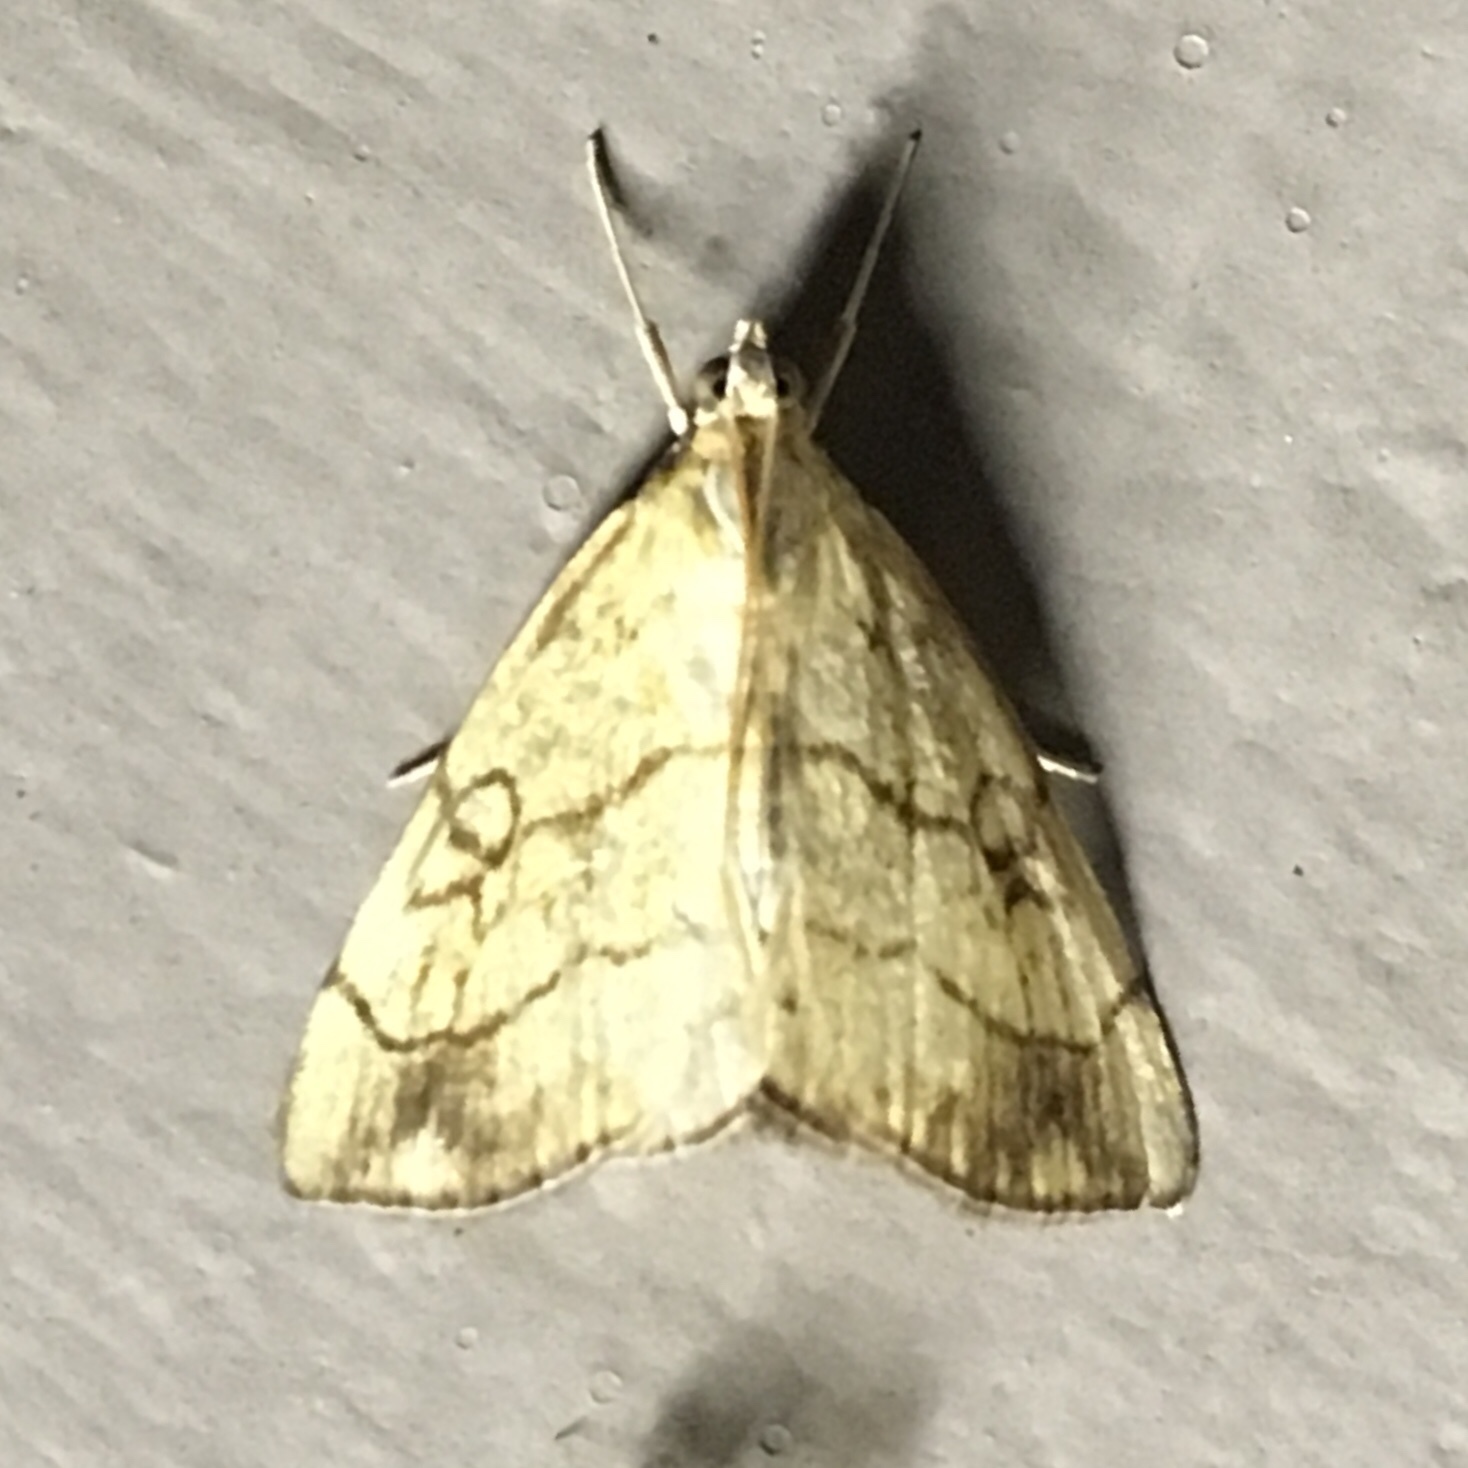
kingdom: Animalia
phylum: Arthropoda
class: Insecta
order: Lepidoptera
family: Crambidae
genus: Evergestis
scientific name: Evergestis pallidata
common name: Chequered pearl
